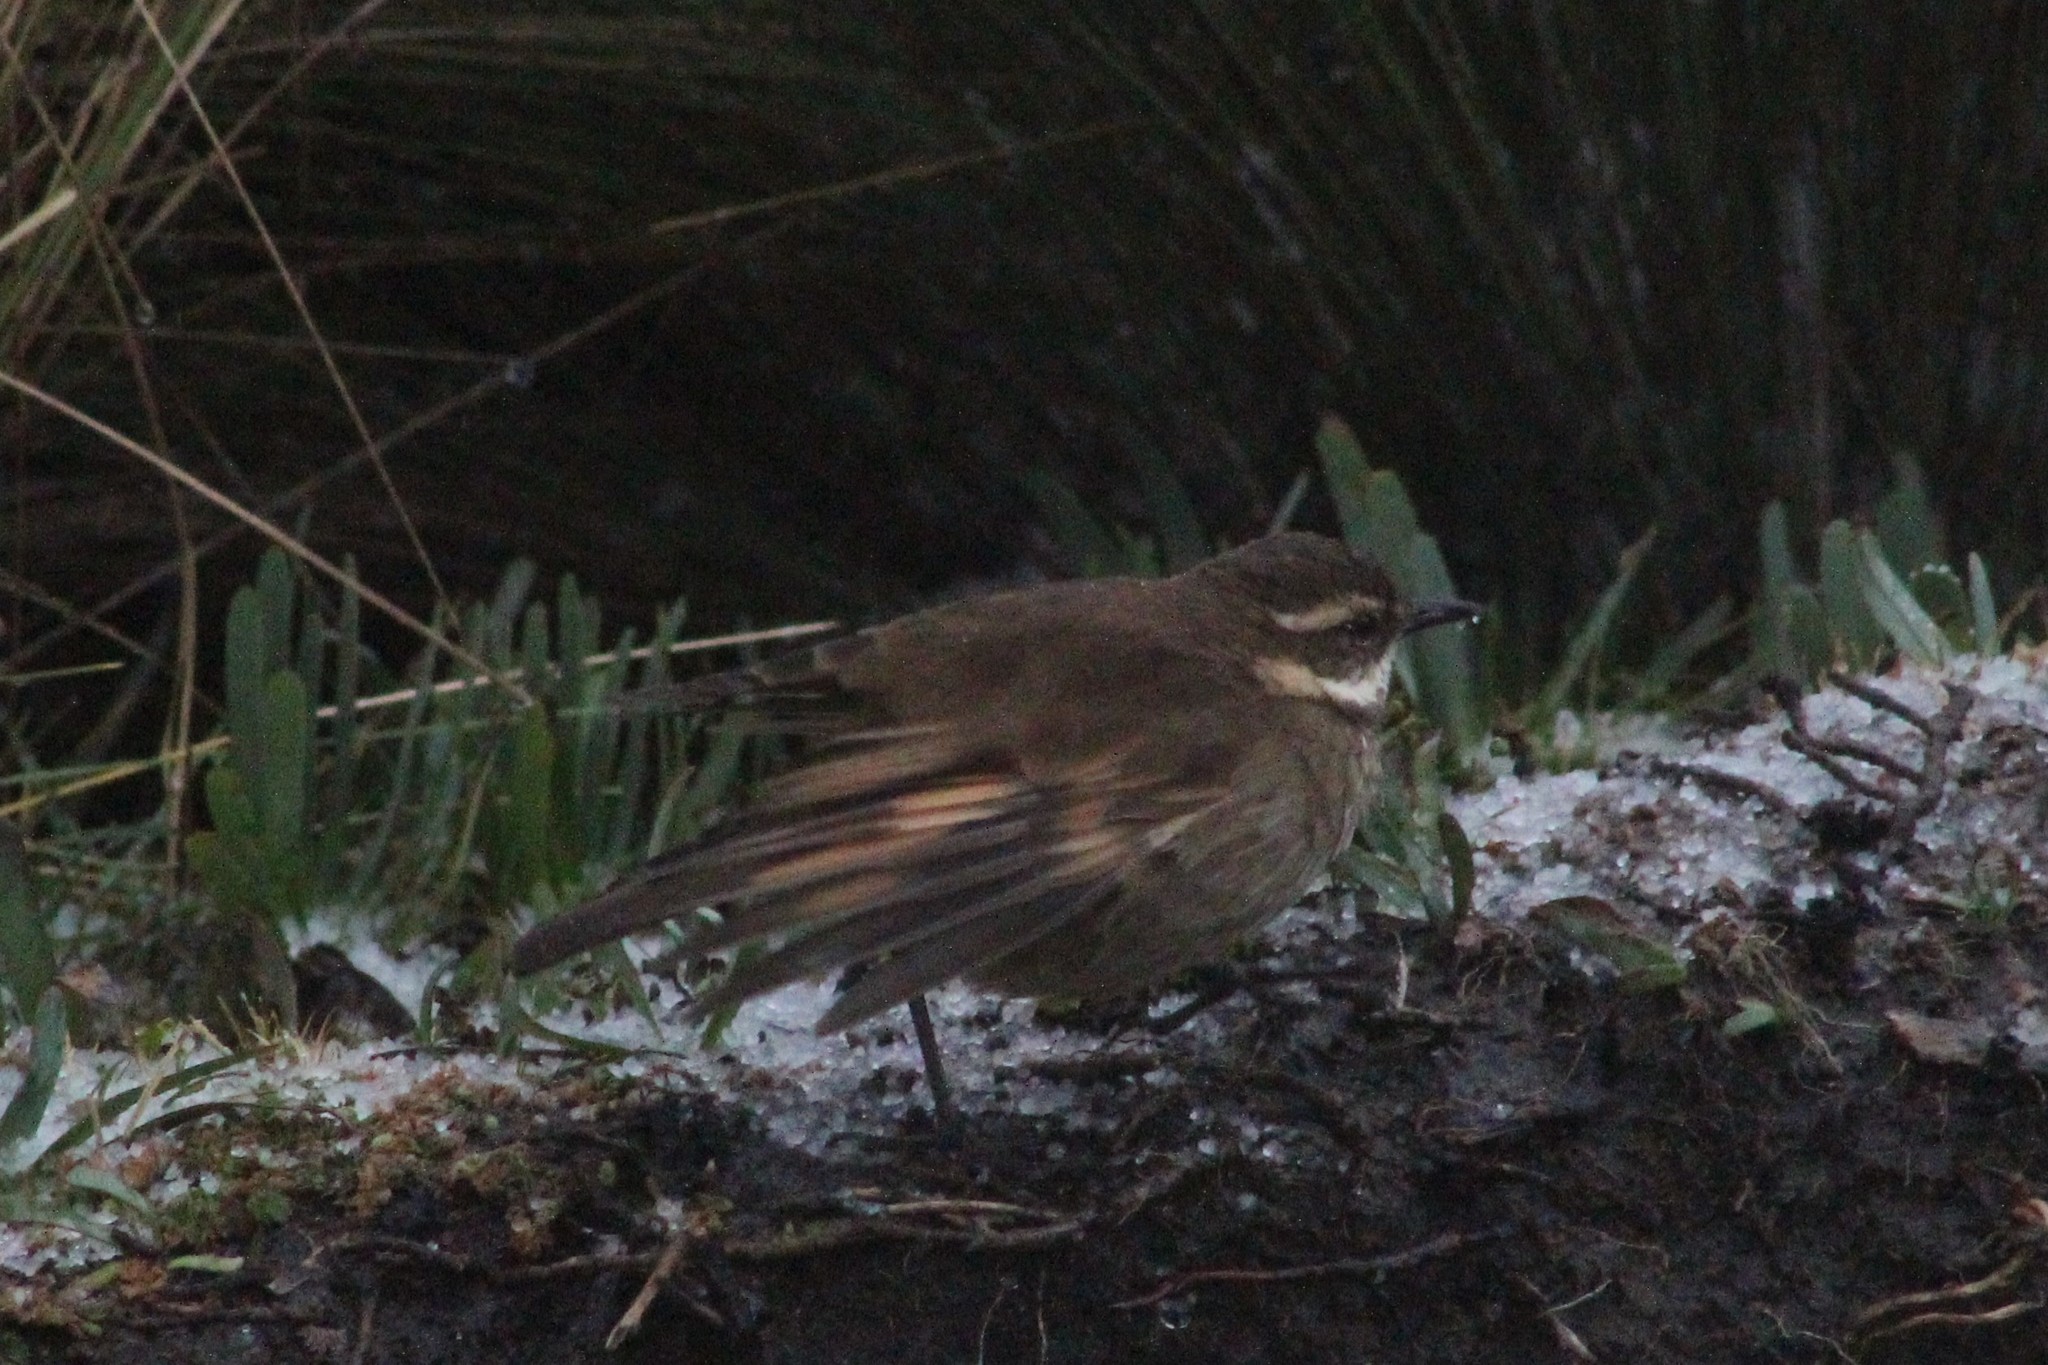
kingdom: Animalia
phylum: Chordata
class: Aves
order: Passeriformes
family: Furnariidae
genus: Cinclodes
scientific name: Cinclodes albidiventris
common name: Chestnut-winged cinclodes
